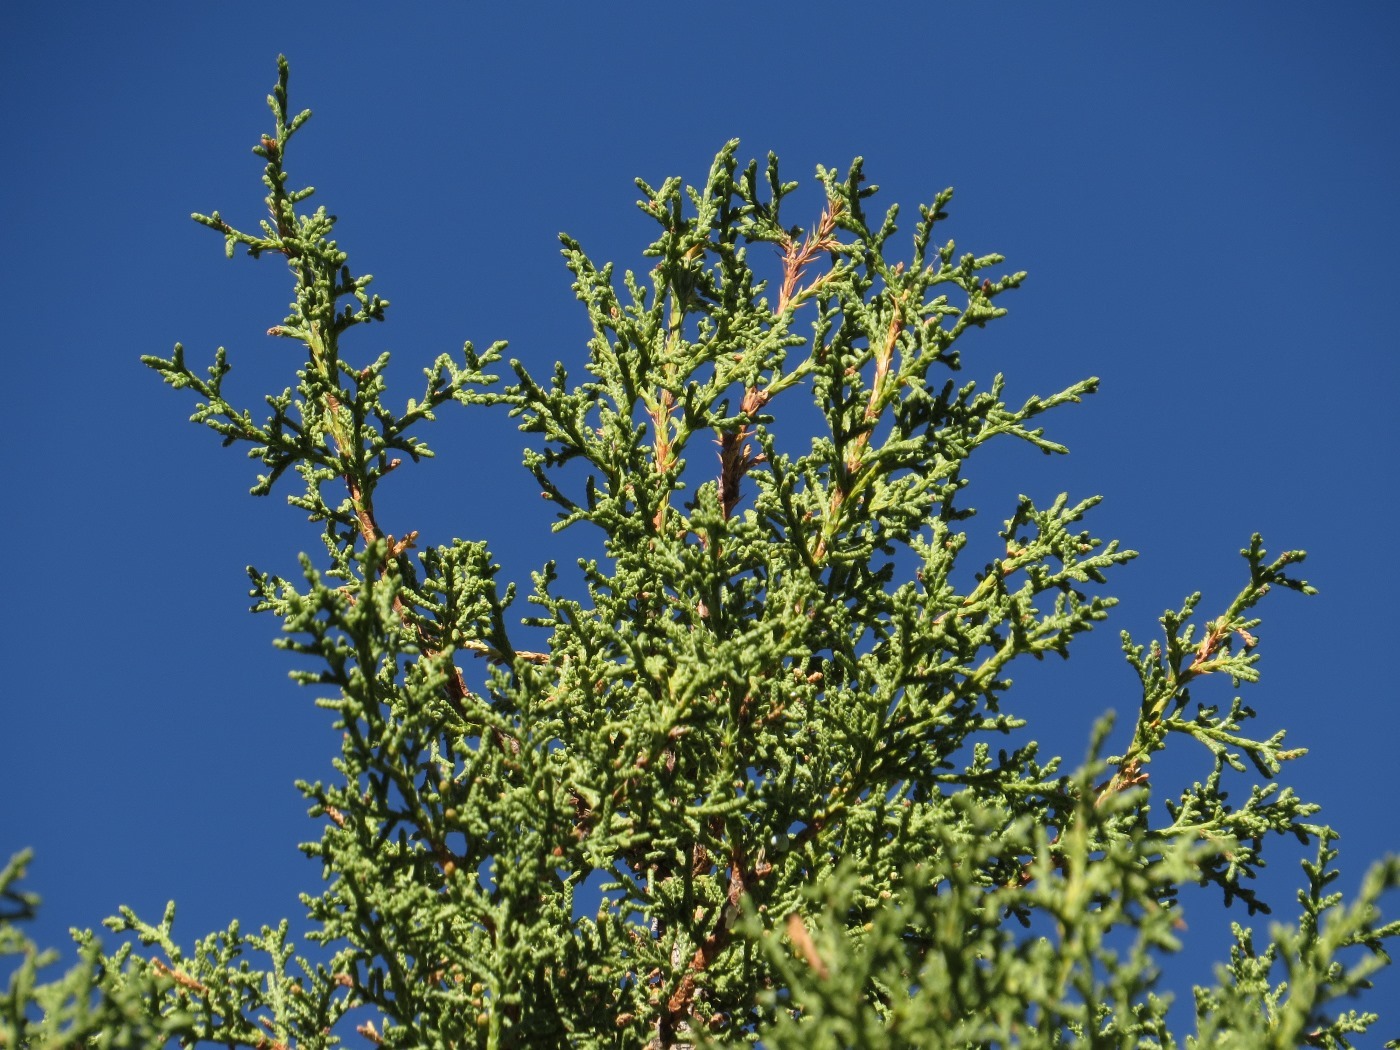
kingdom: Plantae
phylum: Tracheophyta
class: Pinopsida
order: Pinales
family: Cupressaceae
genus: Juniperus
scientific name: Juniperus osteosperma
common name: Utah juniper
